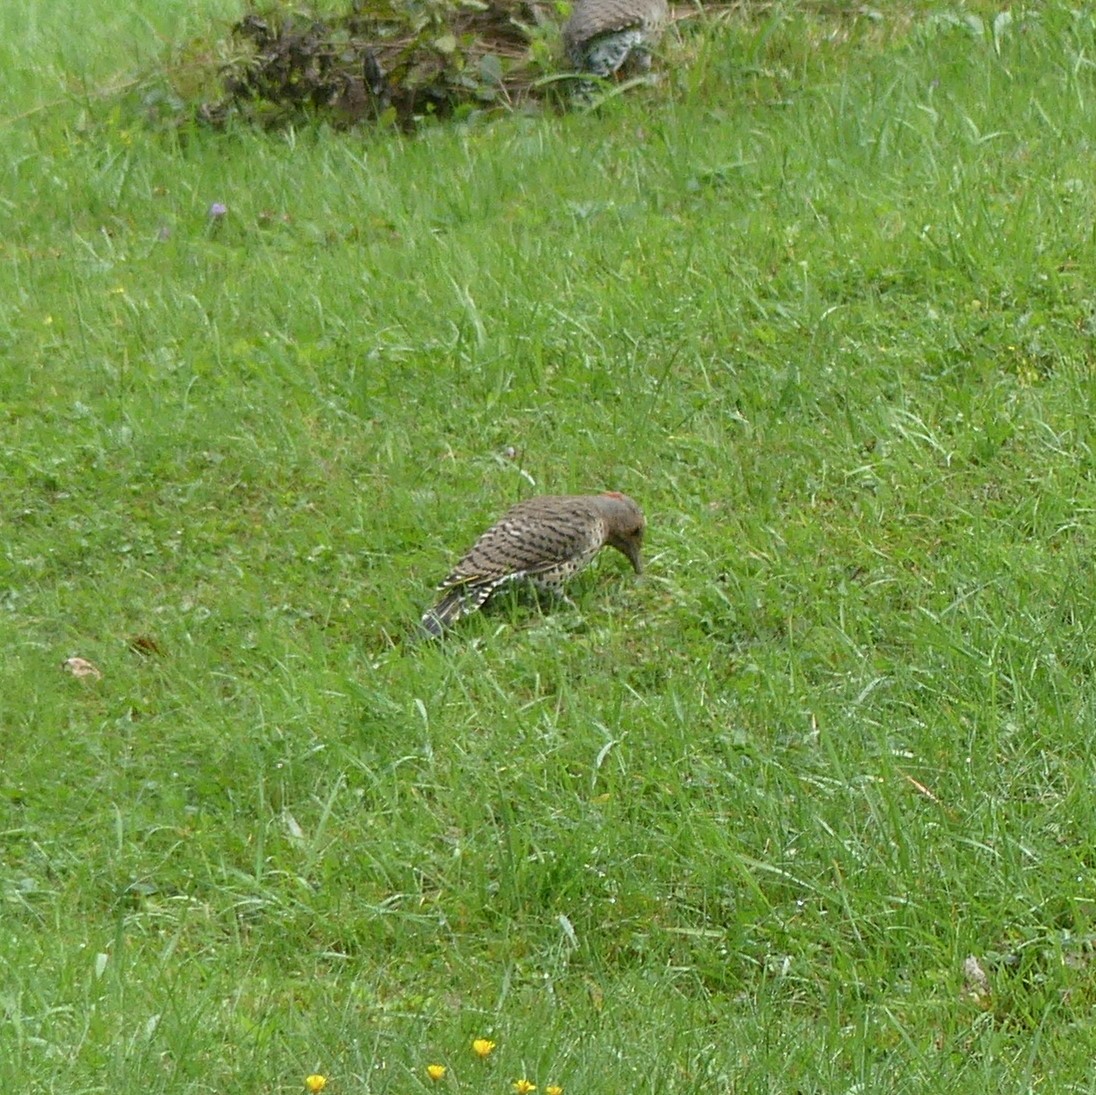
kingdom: Animalia
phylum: Chordata
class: Aves
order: Piciformes
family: Picidae
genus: Colaptes
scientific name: Colaptes auratus
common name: Northern flicker
